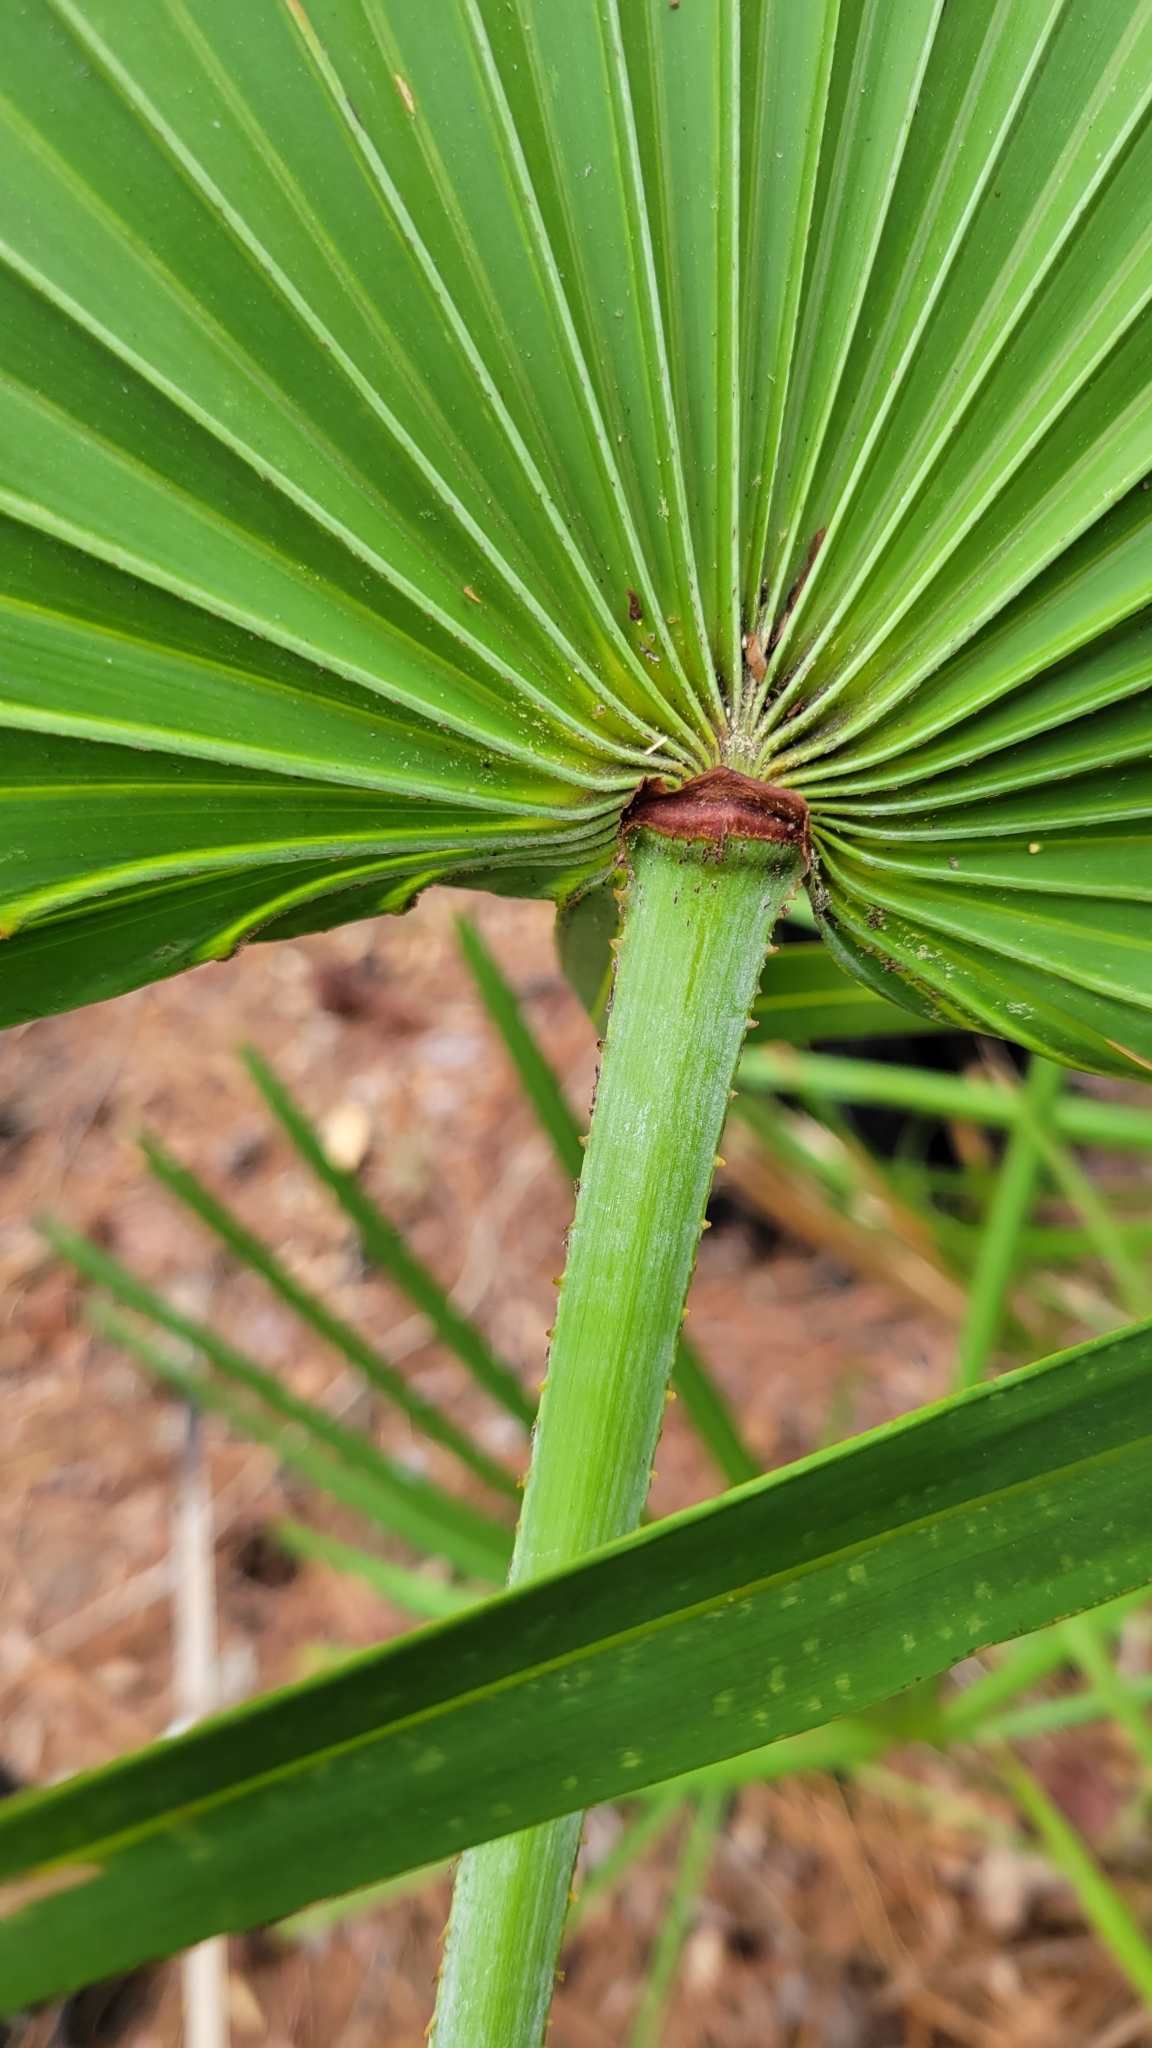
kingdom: Plantae
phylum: Tracheophyta
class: Liliopsida
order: Arecales
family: Arecaceae
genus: Serenoa
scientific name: Serenoa repens
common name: Saw-palmetto
